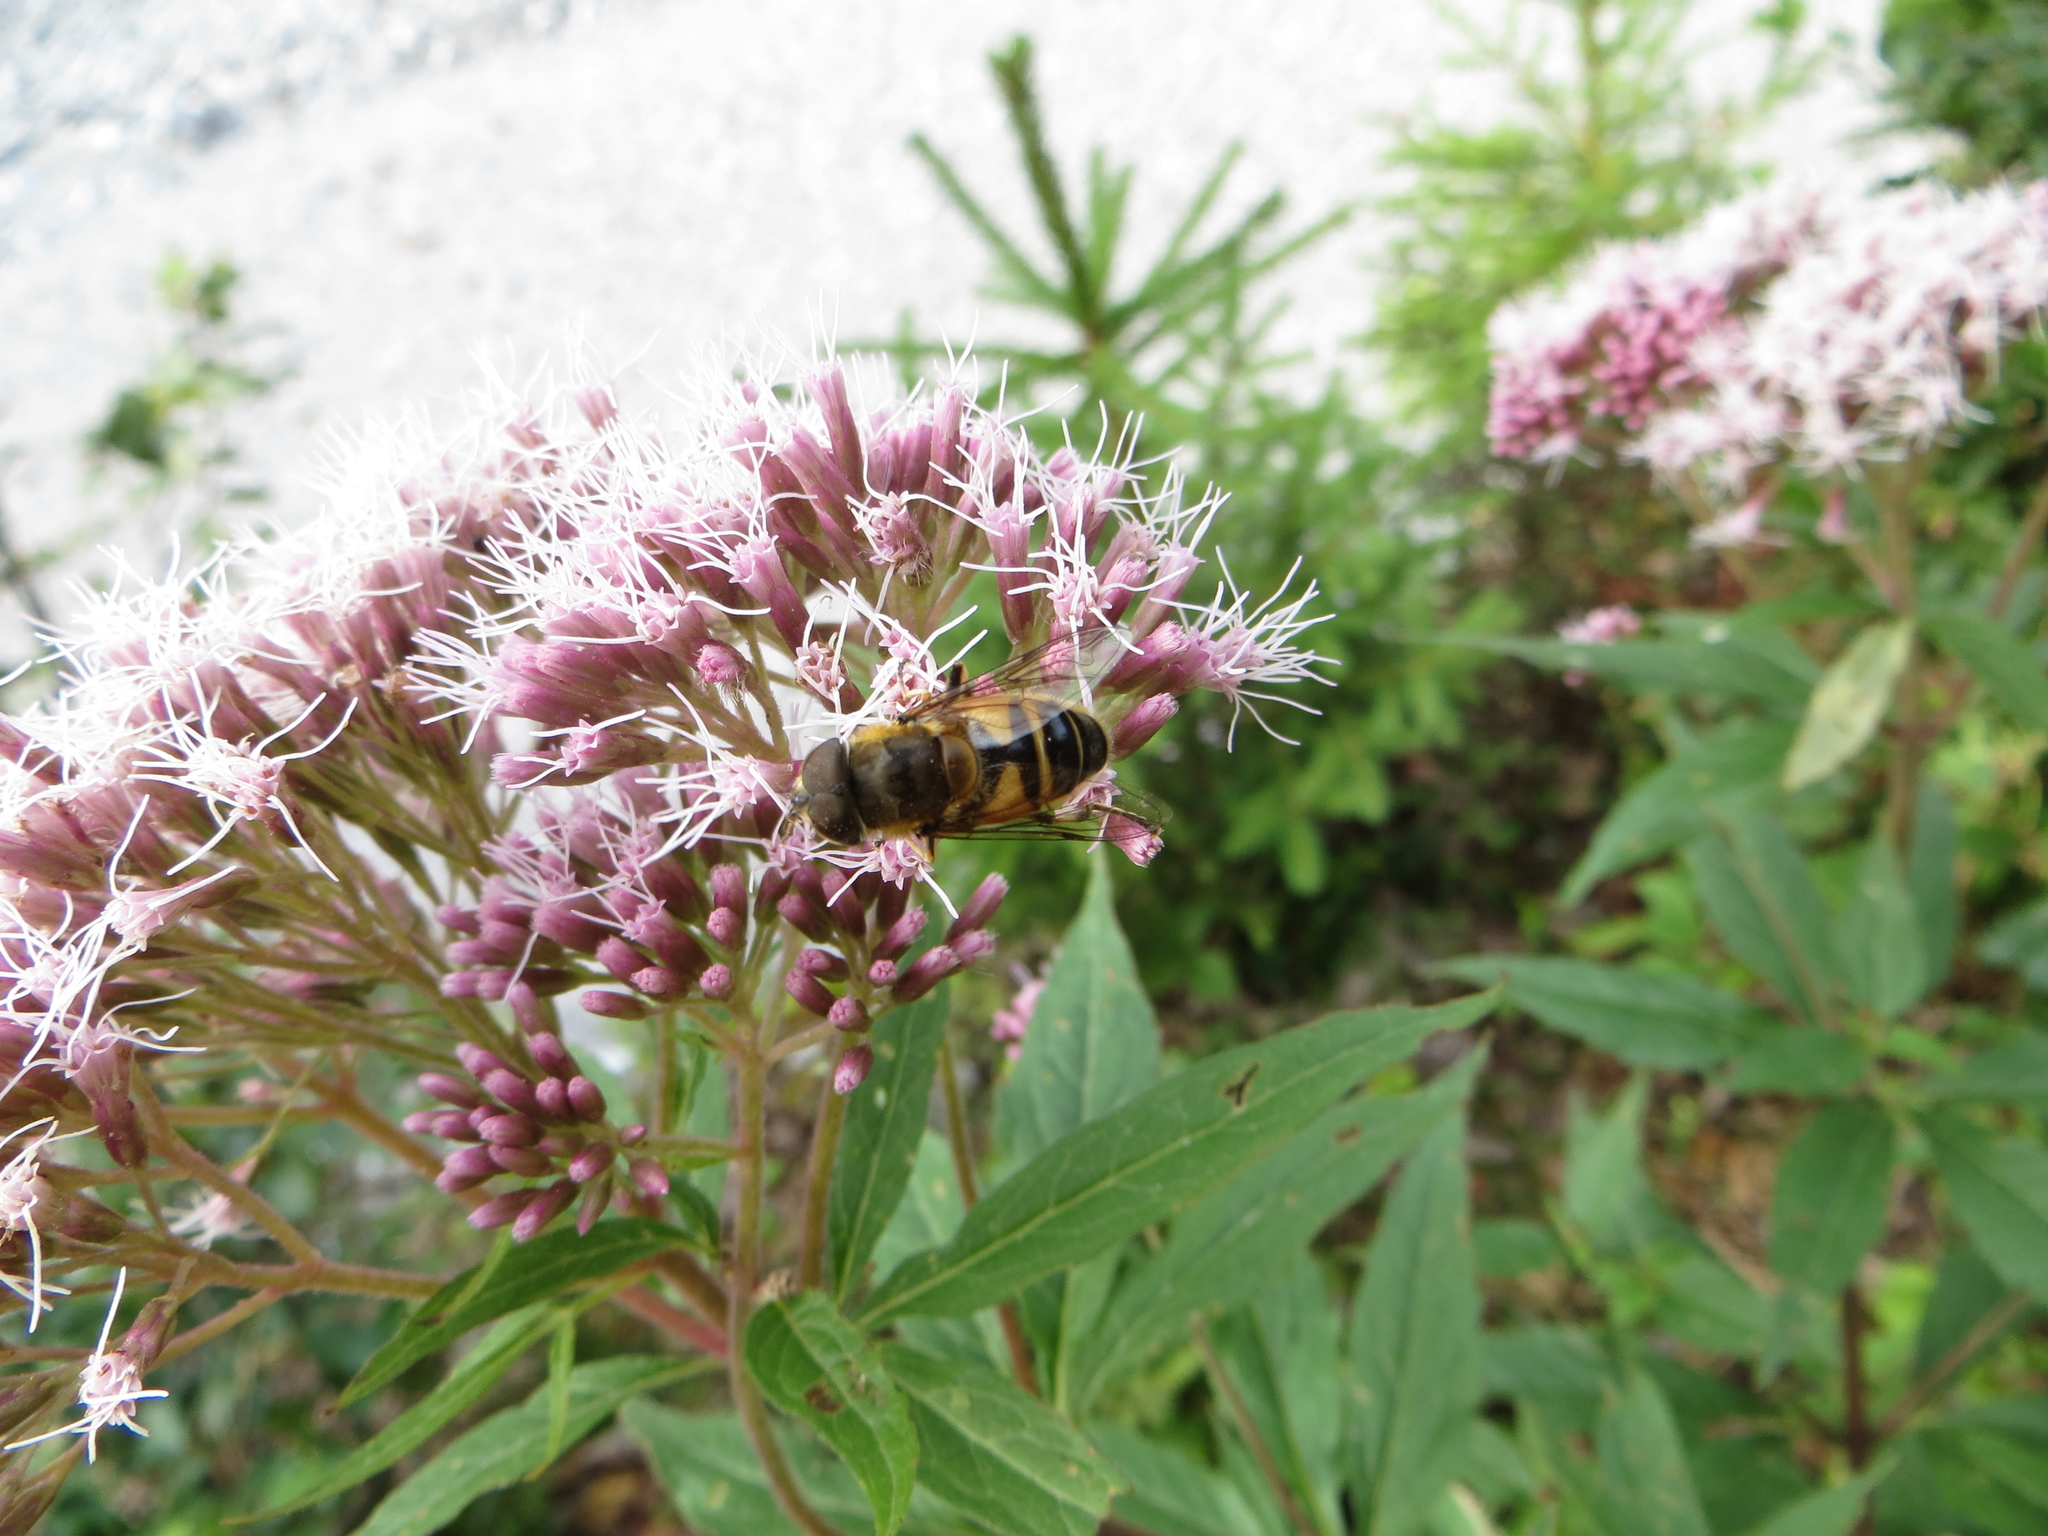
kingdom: Animalia
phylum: Arthropoda
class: Insecta
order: Diptera
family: Syrphidae
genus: Eristalis
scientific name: Eristalis pertinax
